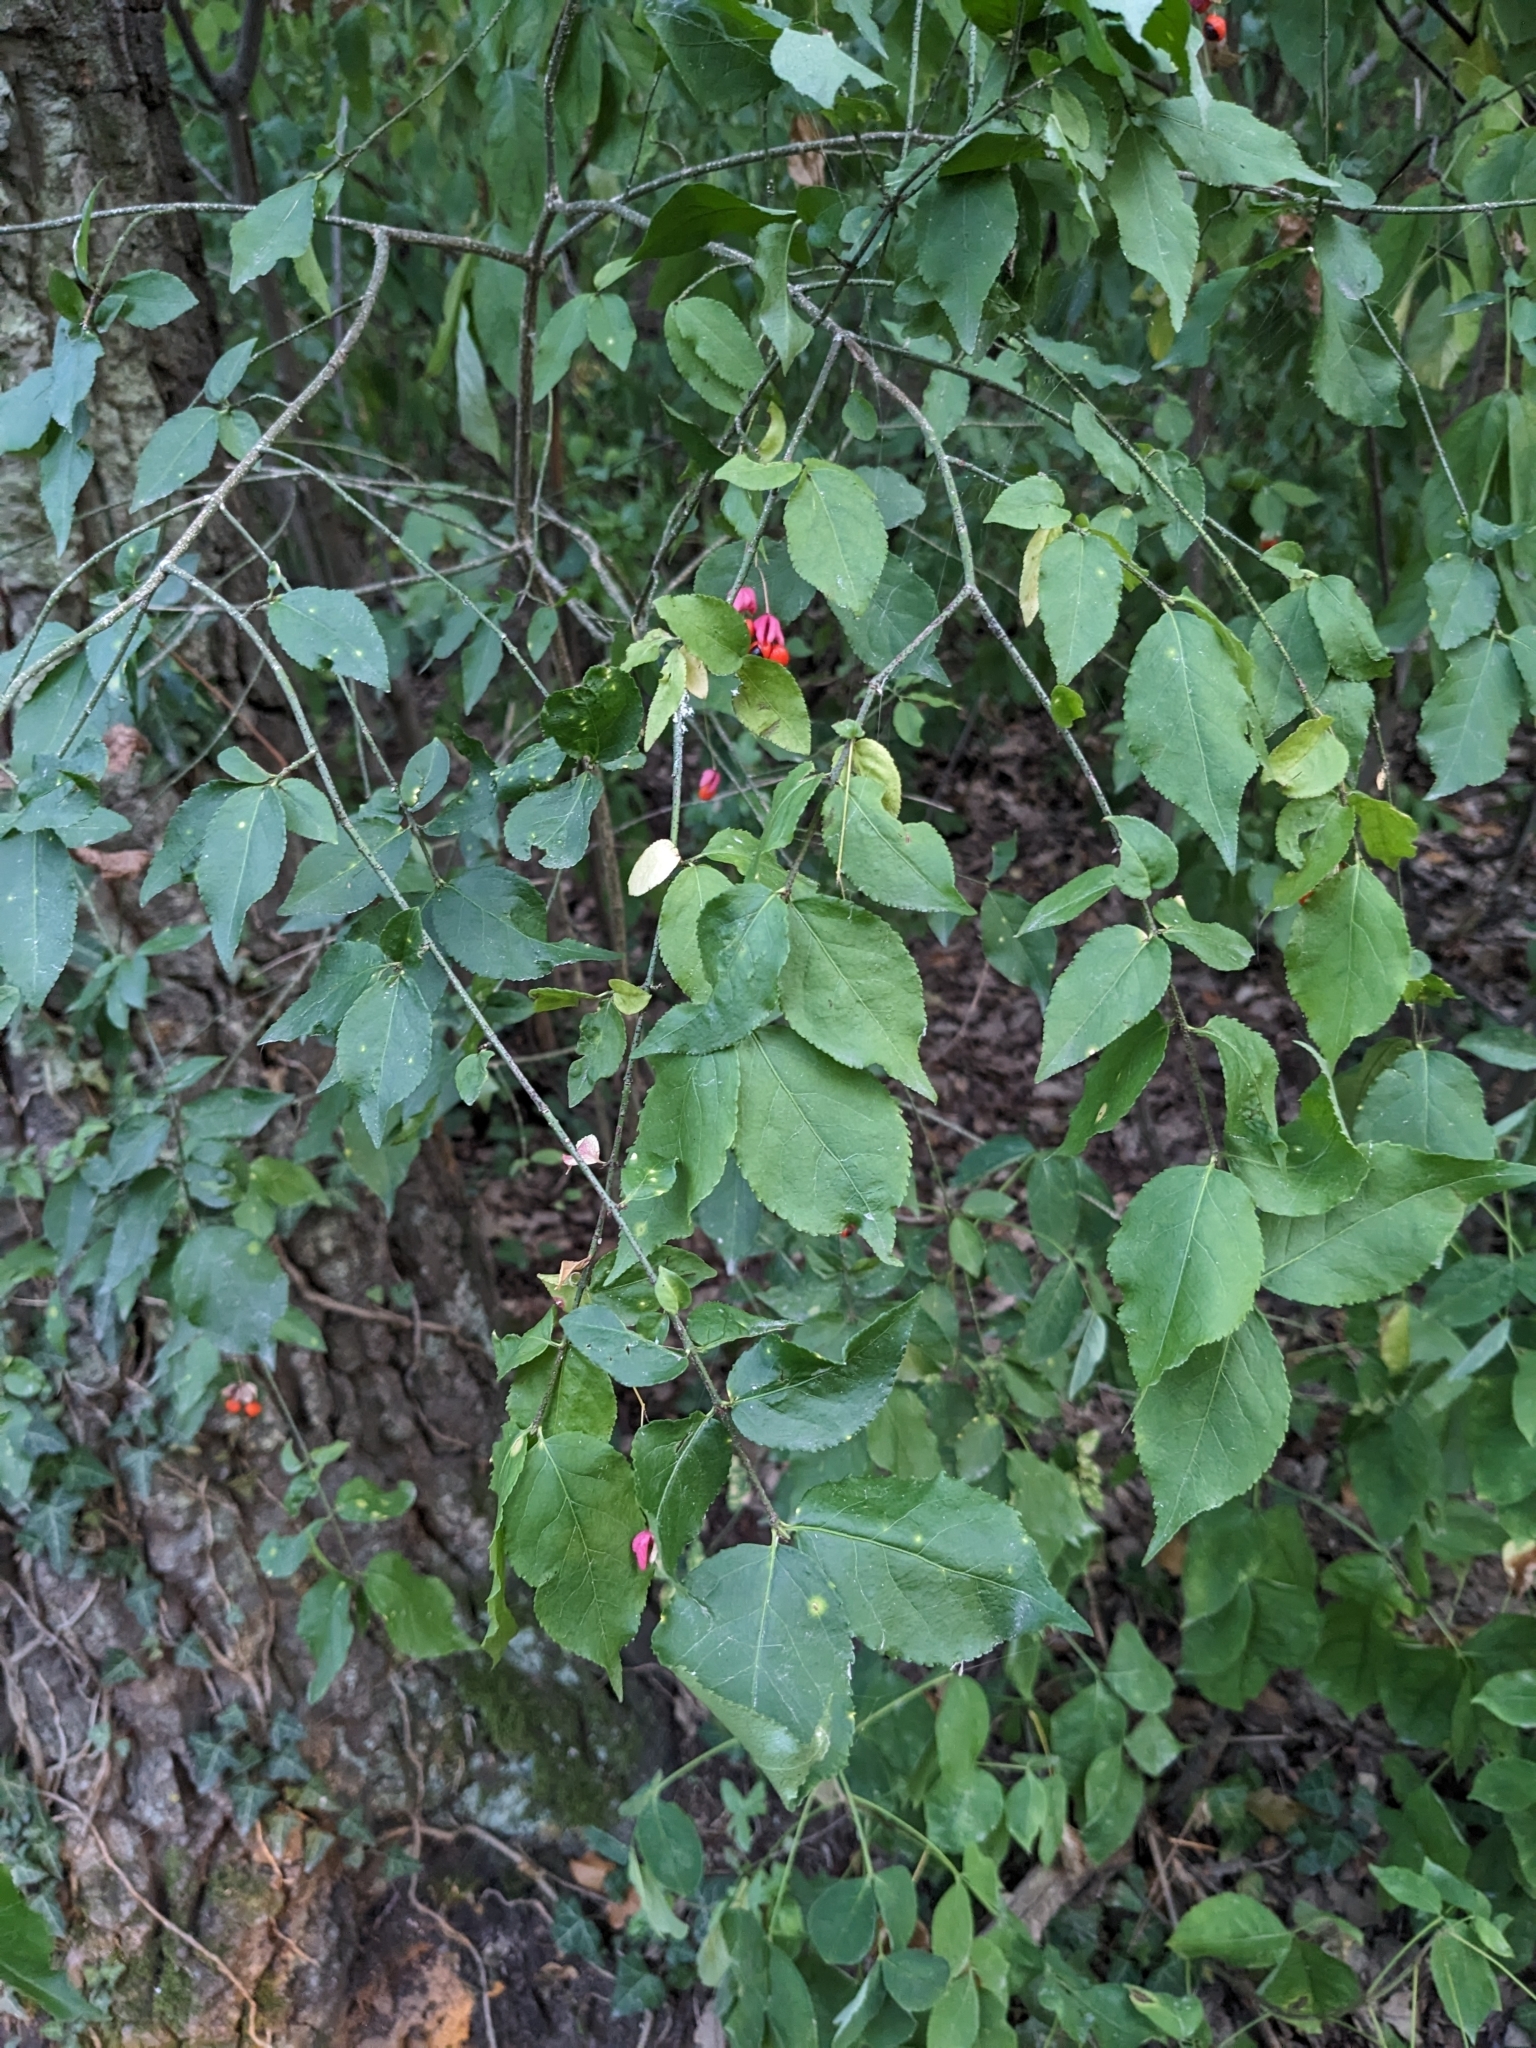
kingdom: Plantae
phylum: Tracheophyta
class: Magnoliopsida
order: Celastrales
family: Celastraceae
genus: Euonymus
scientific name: Euonymus verrucosus
